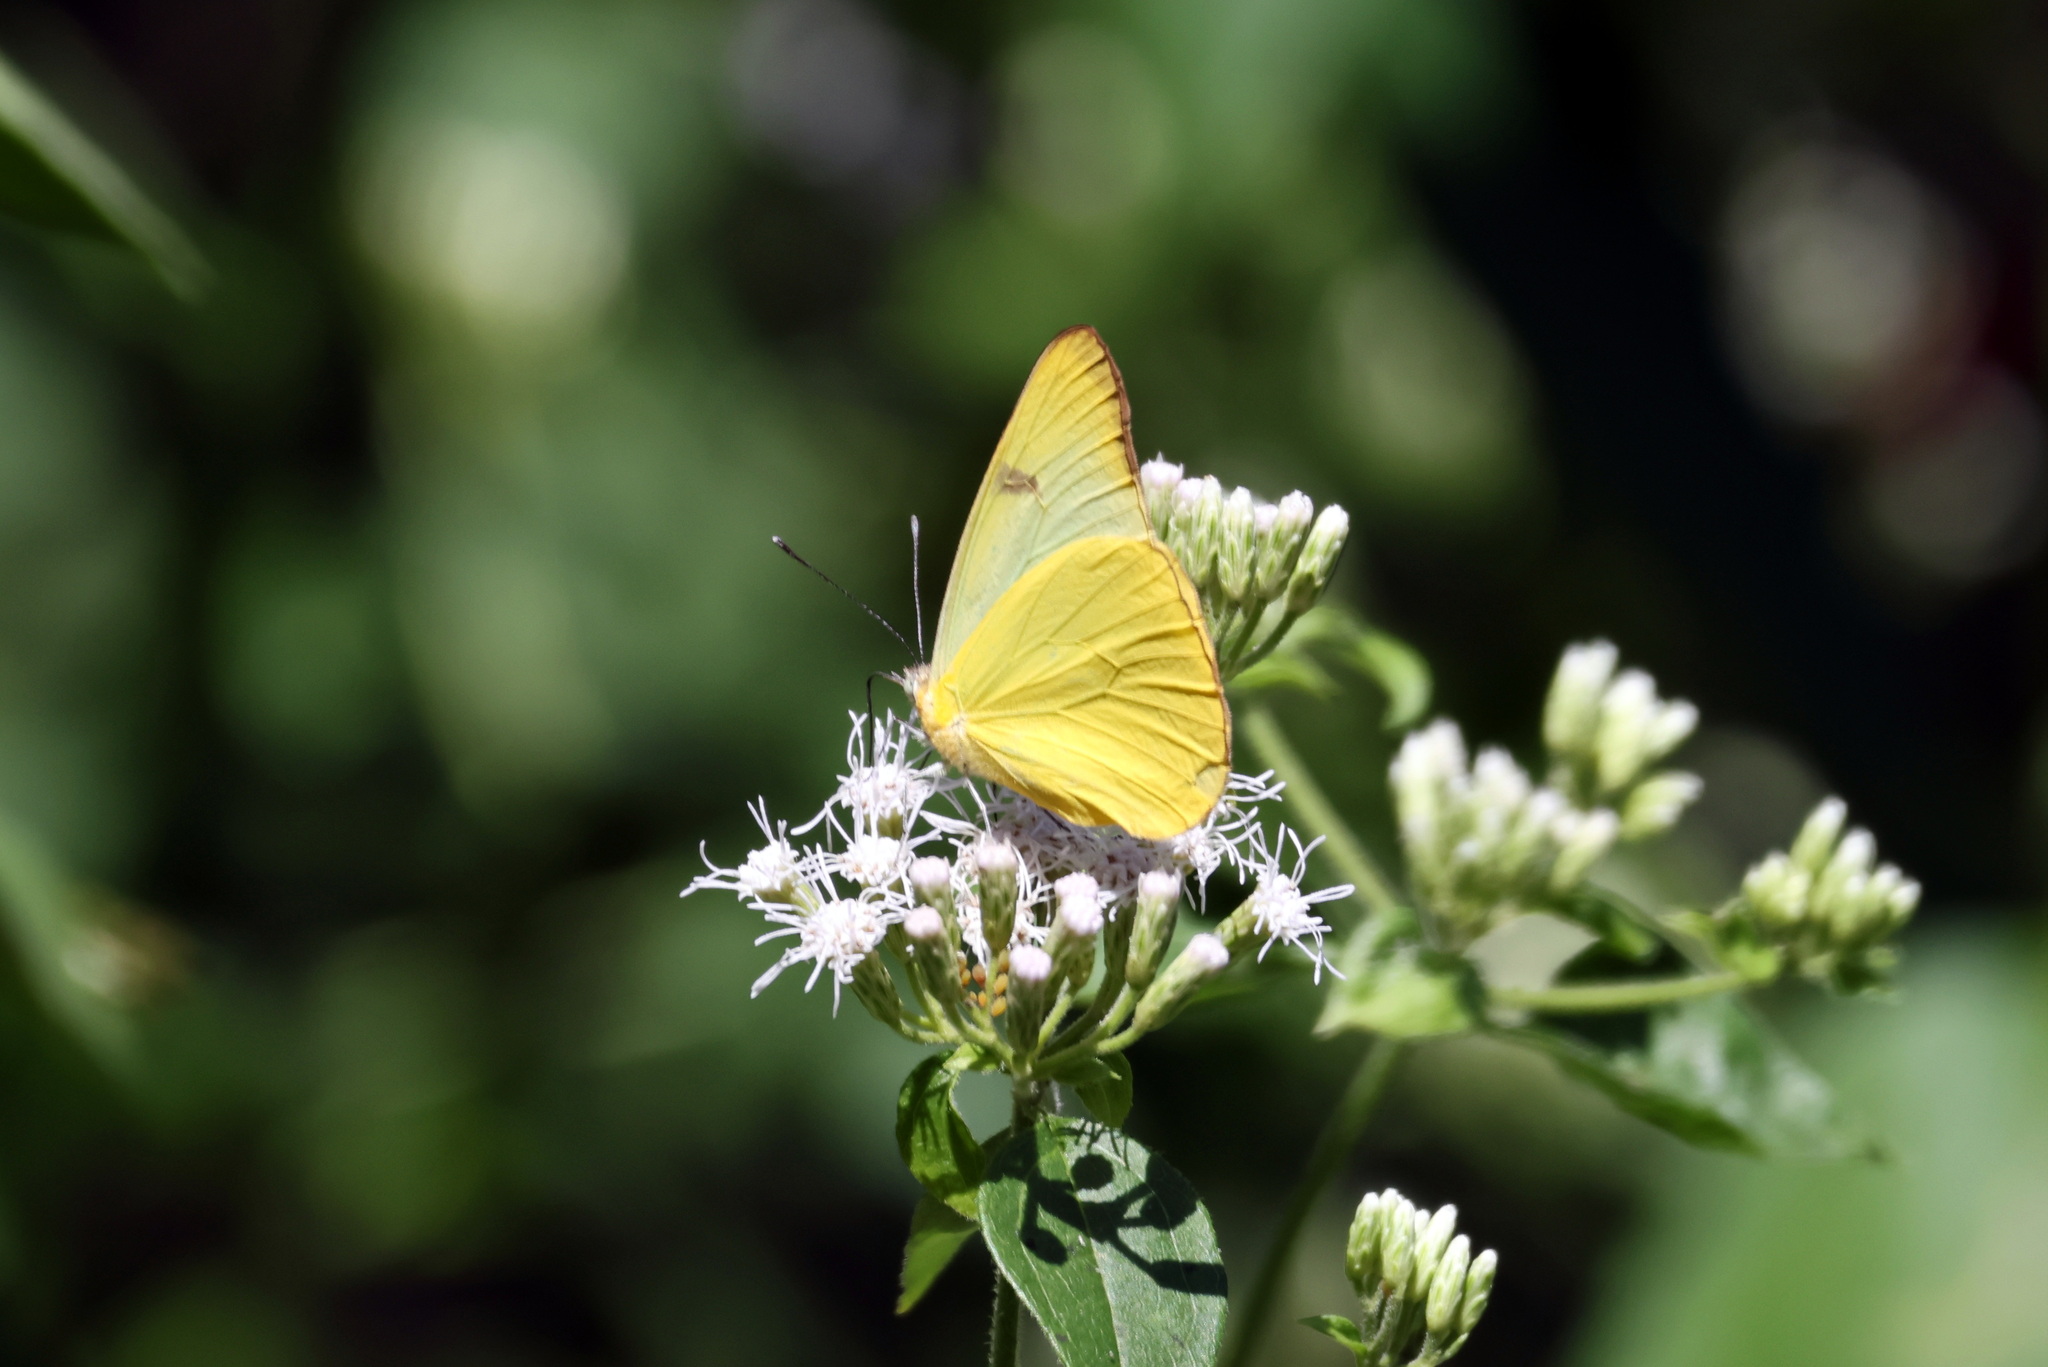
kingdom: Animalia
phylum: Arthropoda
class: Insecta
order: Lepidoptera
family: Pieridae
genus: Melete
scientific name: Melete lycimnia
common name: Common melwhite
